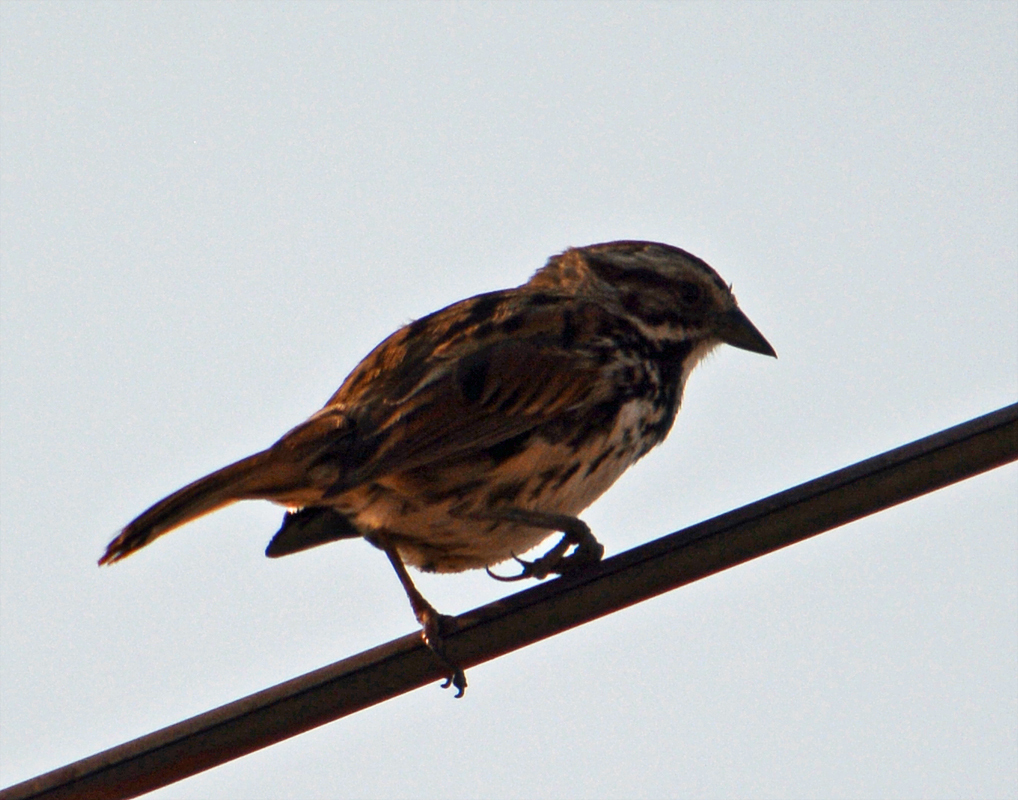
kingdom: Animalia
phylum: Chordata
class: Aves
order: Passeriformes
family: Passerellidae
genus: Melospiza
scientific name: Melospiza melodia
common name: Song sparrow
